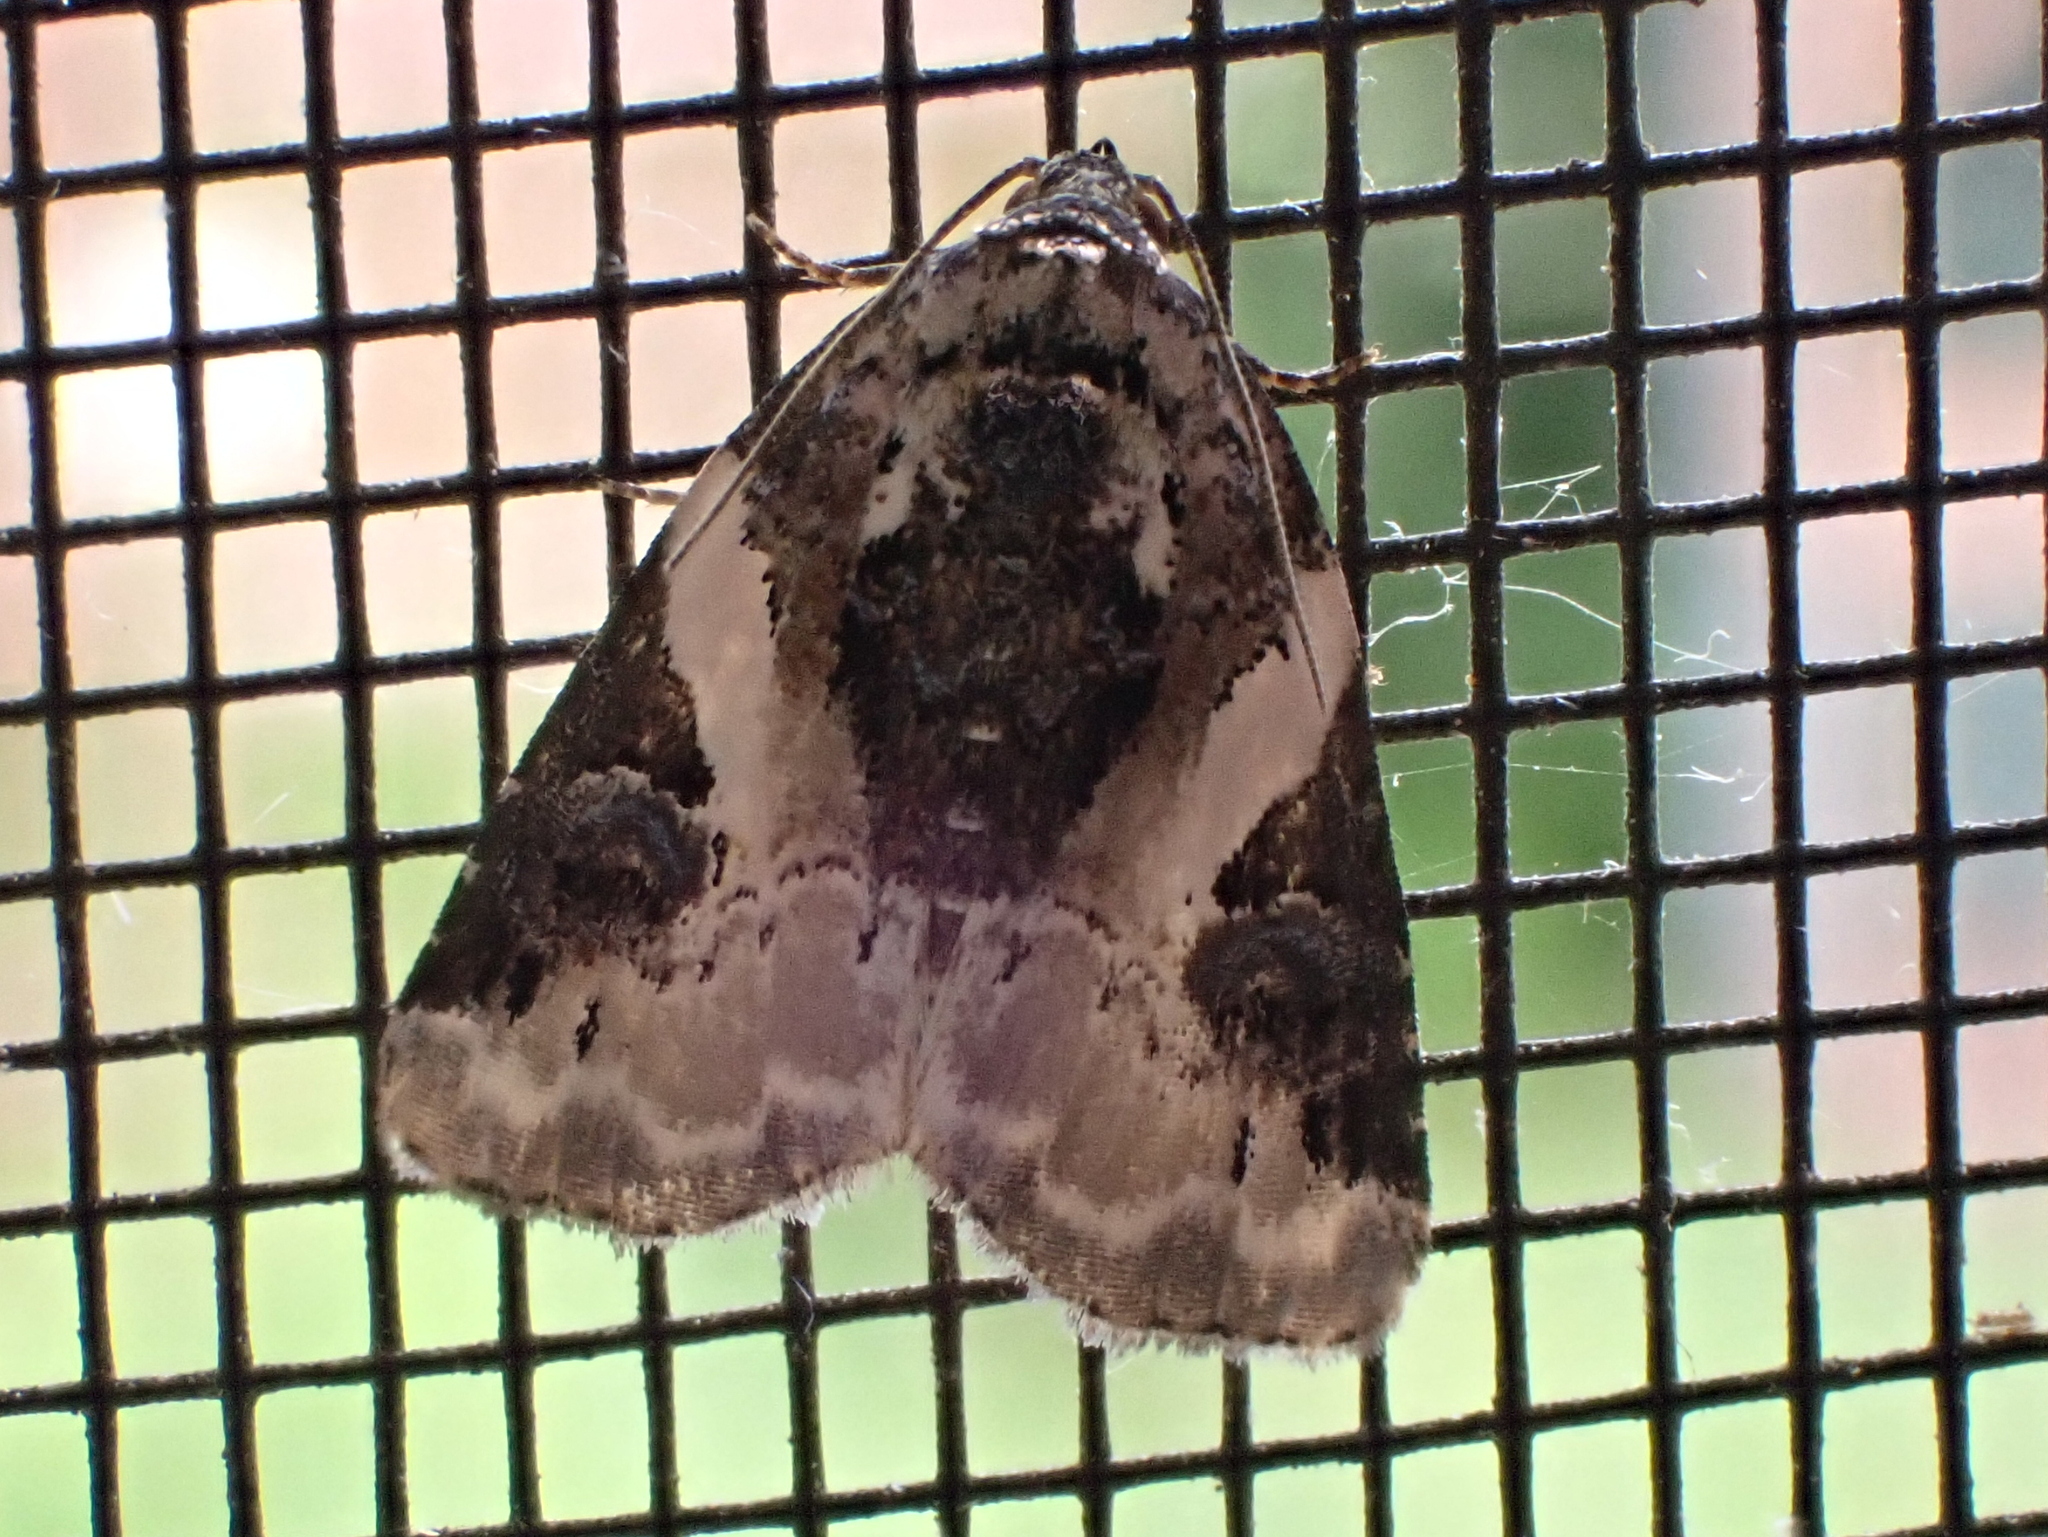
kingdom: Animalia
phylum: Arthropoda
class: Insecta
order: Lepidoptera
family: Noctuidae
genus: Pseudeustrotia
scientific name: Pseudeustrotia carneola
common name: Pink-barred lithacodia moth
